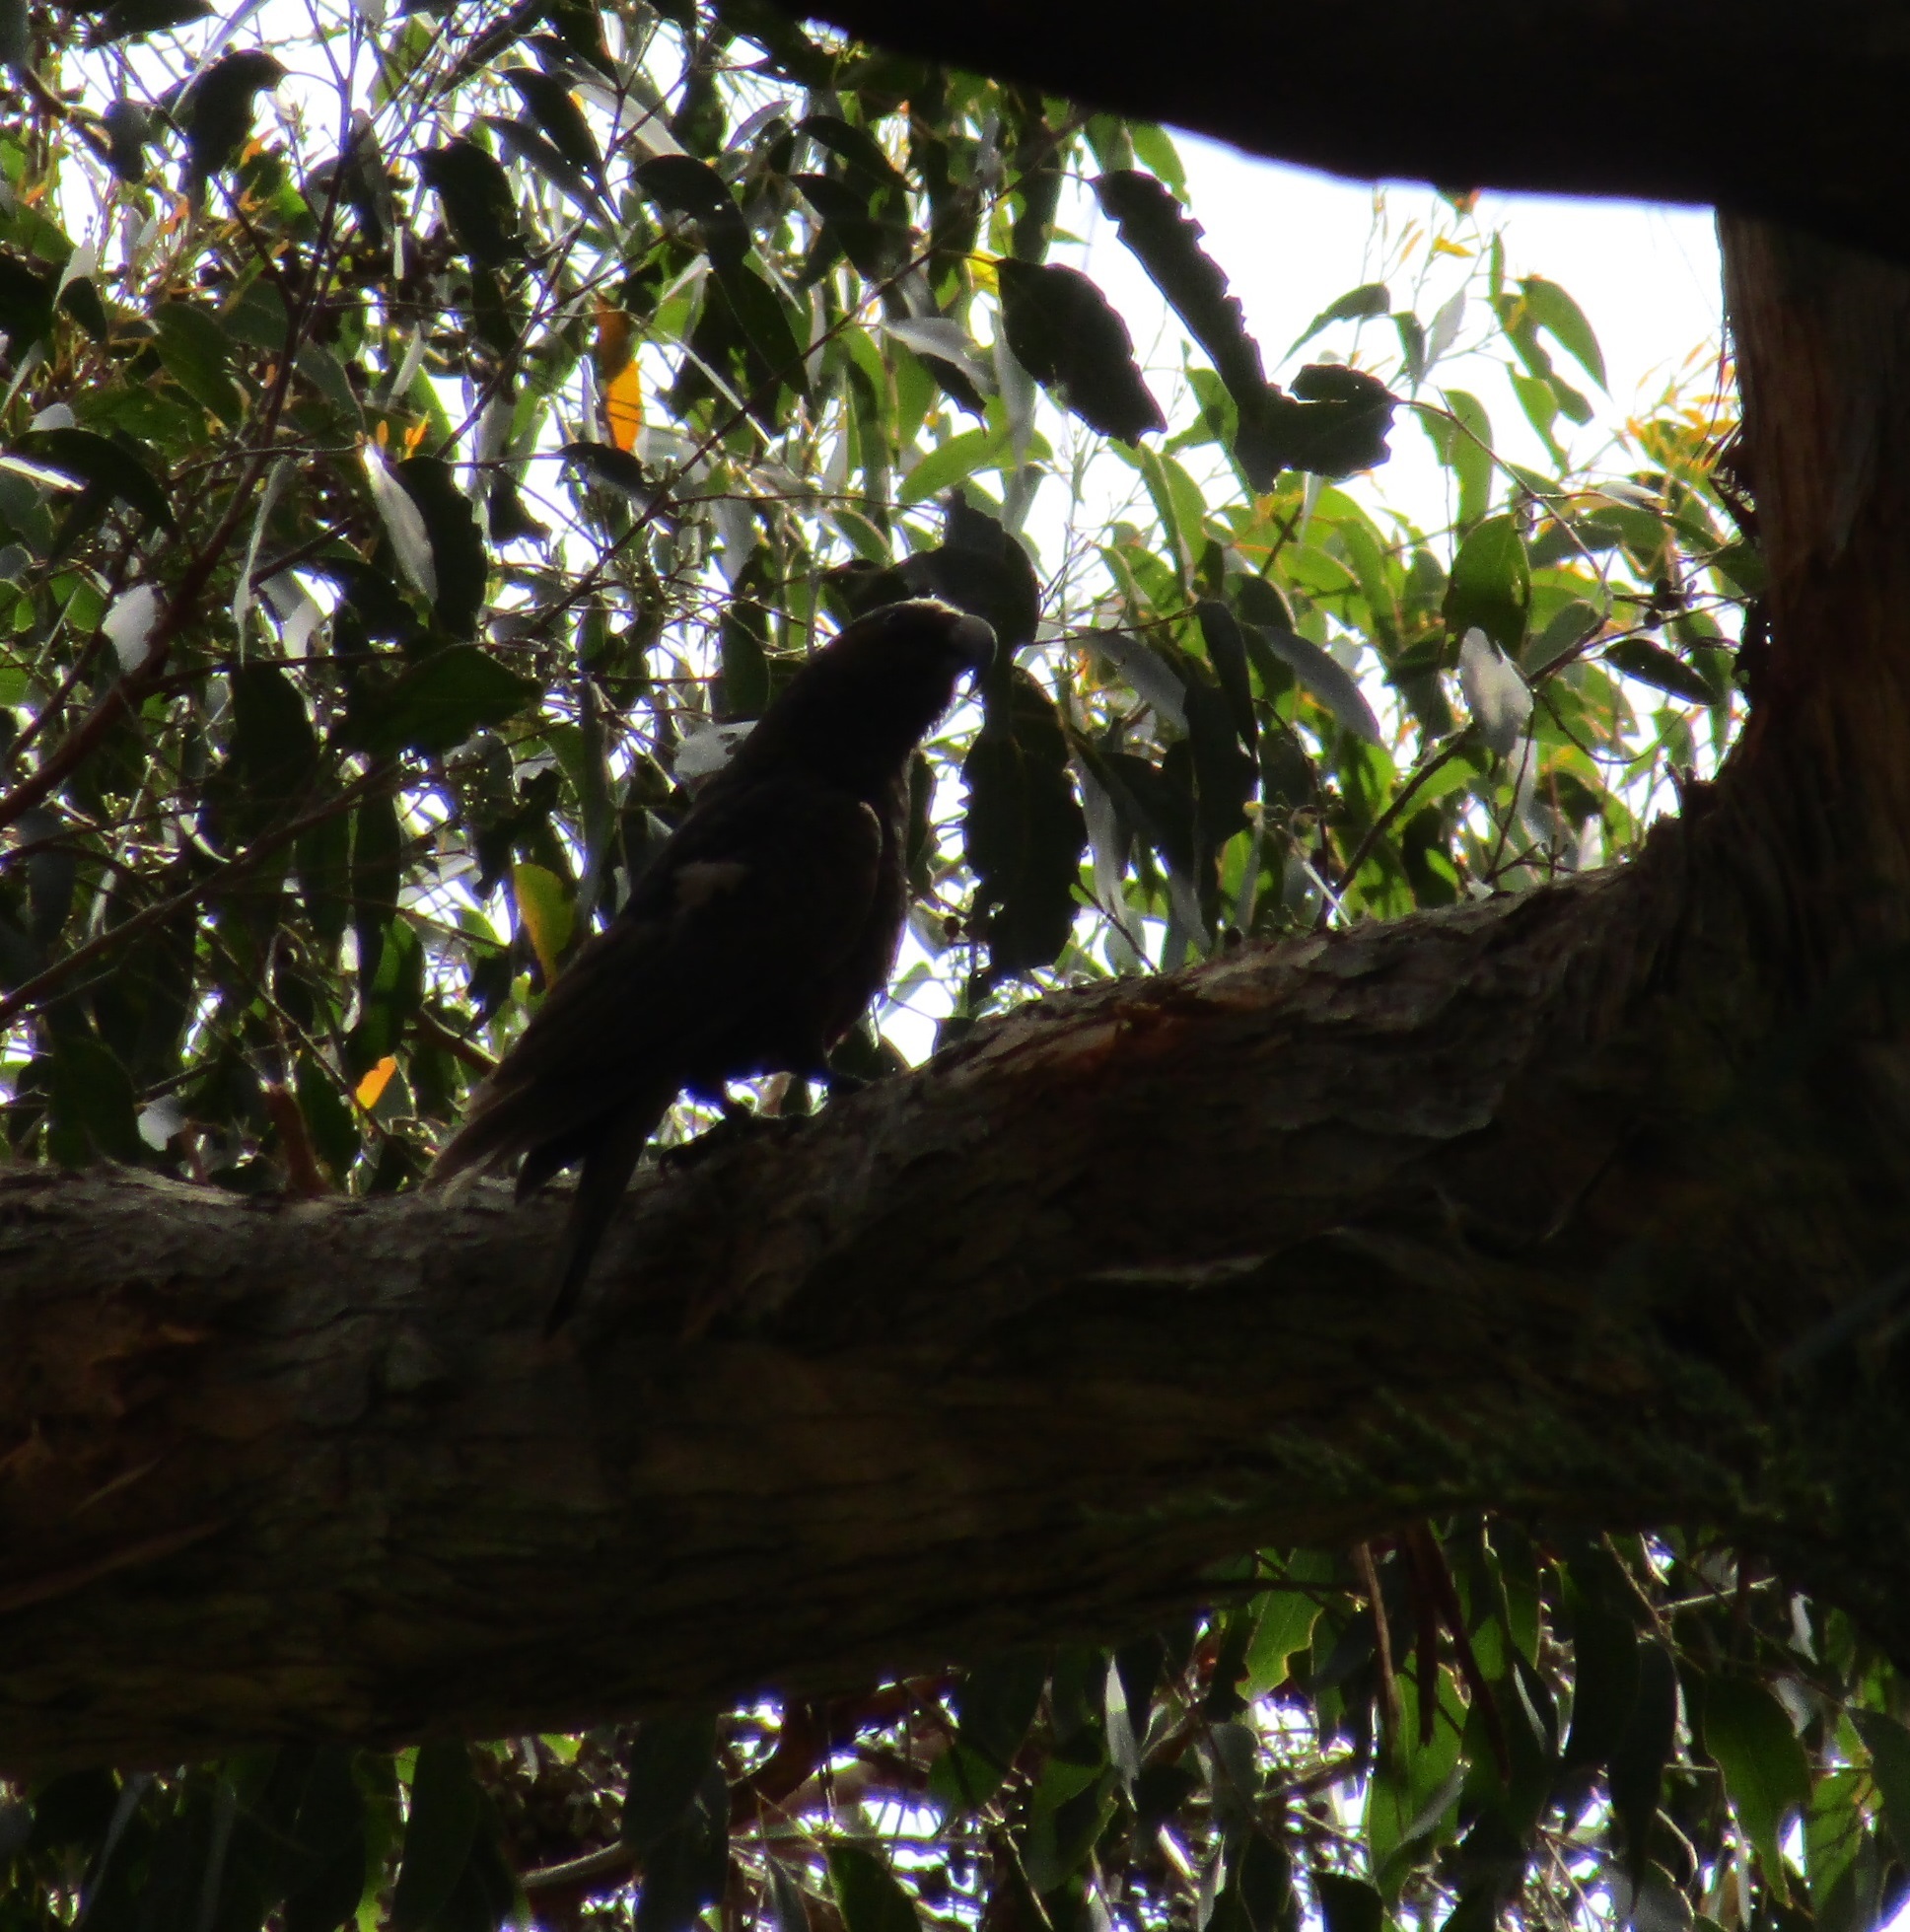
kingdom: Animalia
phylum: Chordata
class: Aves
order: Psittaciformes
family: Psittacidae
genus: Nestor
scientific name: Nestor meridionalis
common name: New zealand kaka
